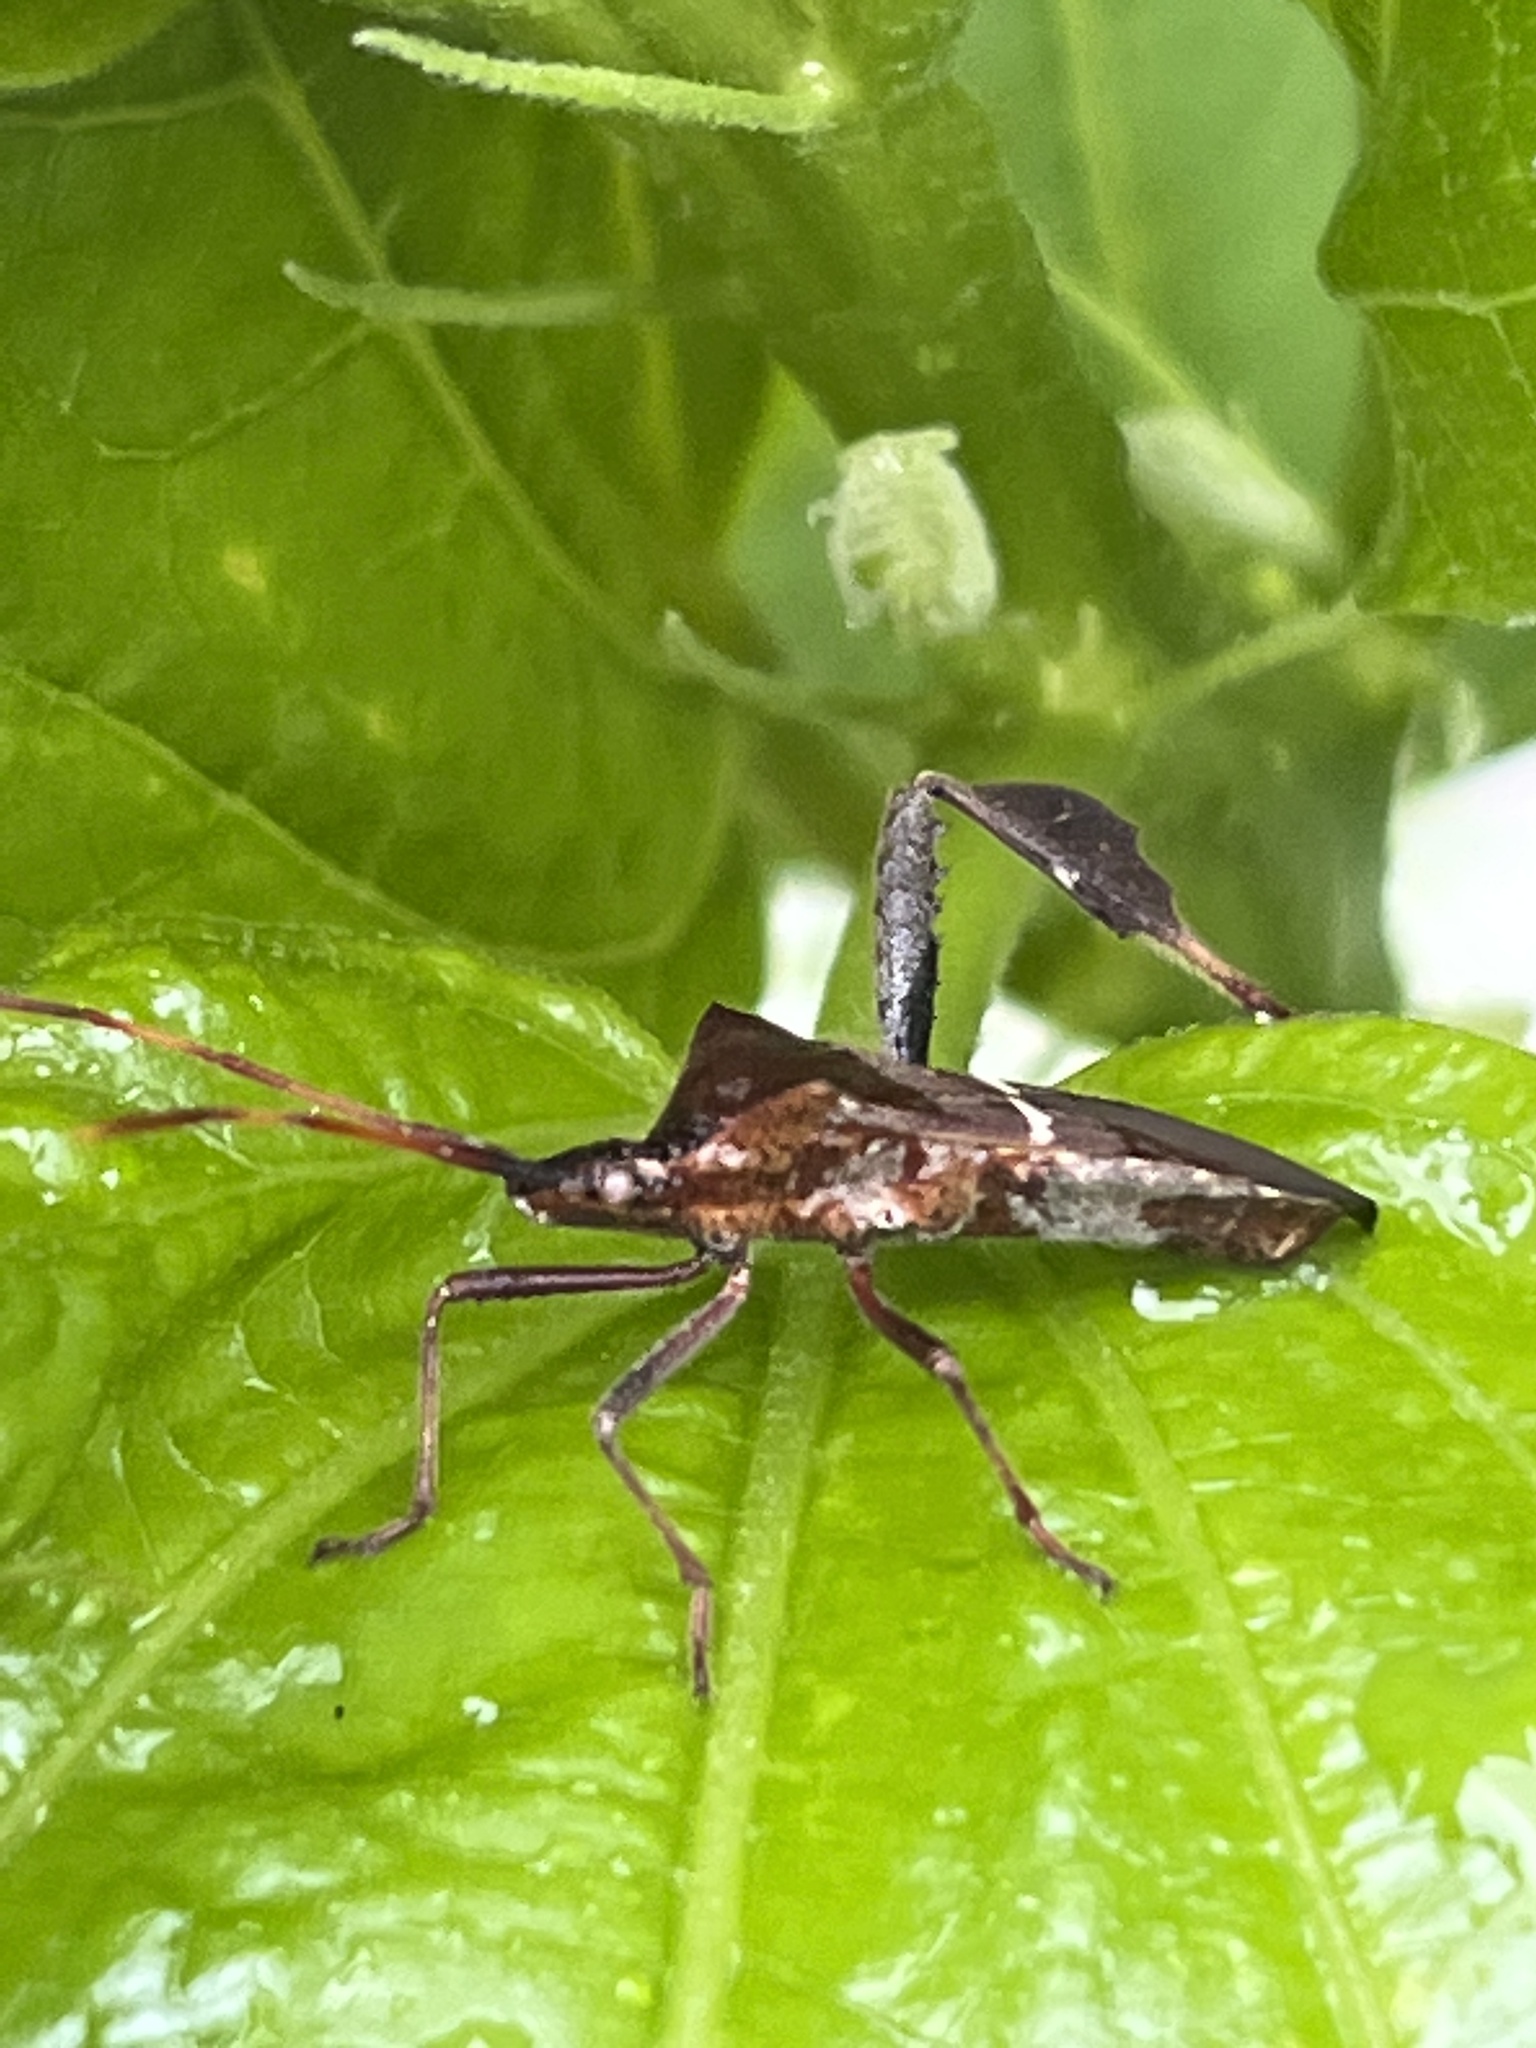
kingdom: Animalia
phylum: Arthropoda
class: Insecta
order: Hemiptera
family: Coreidae
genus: Leptoglossus
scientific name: Leptoglossus phyllopus
